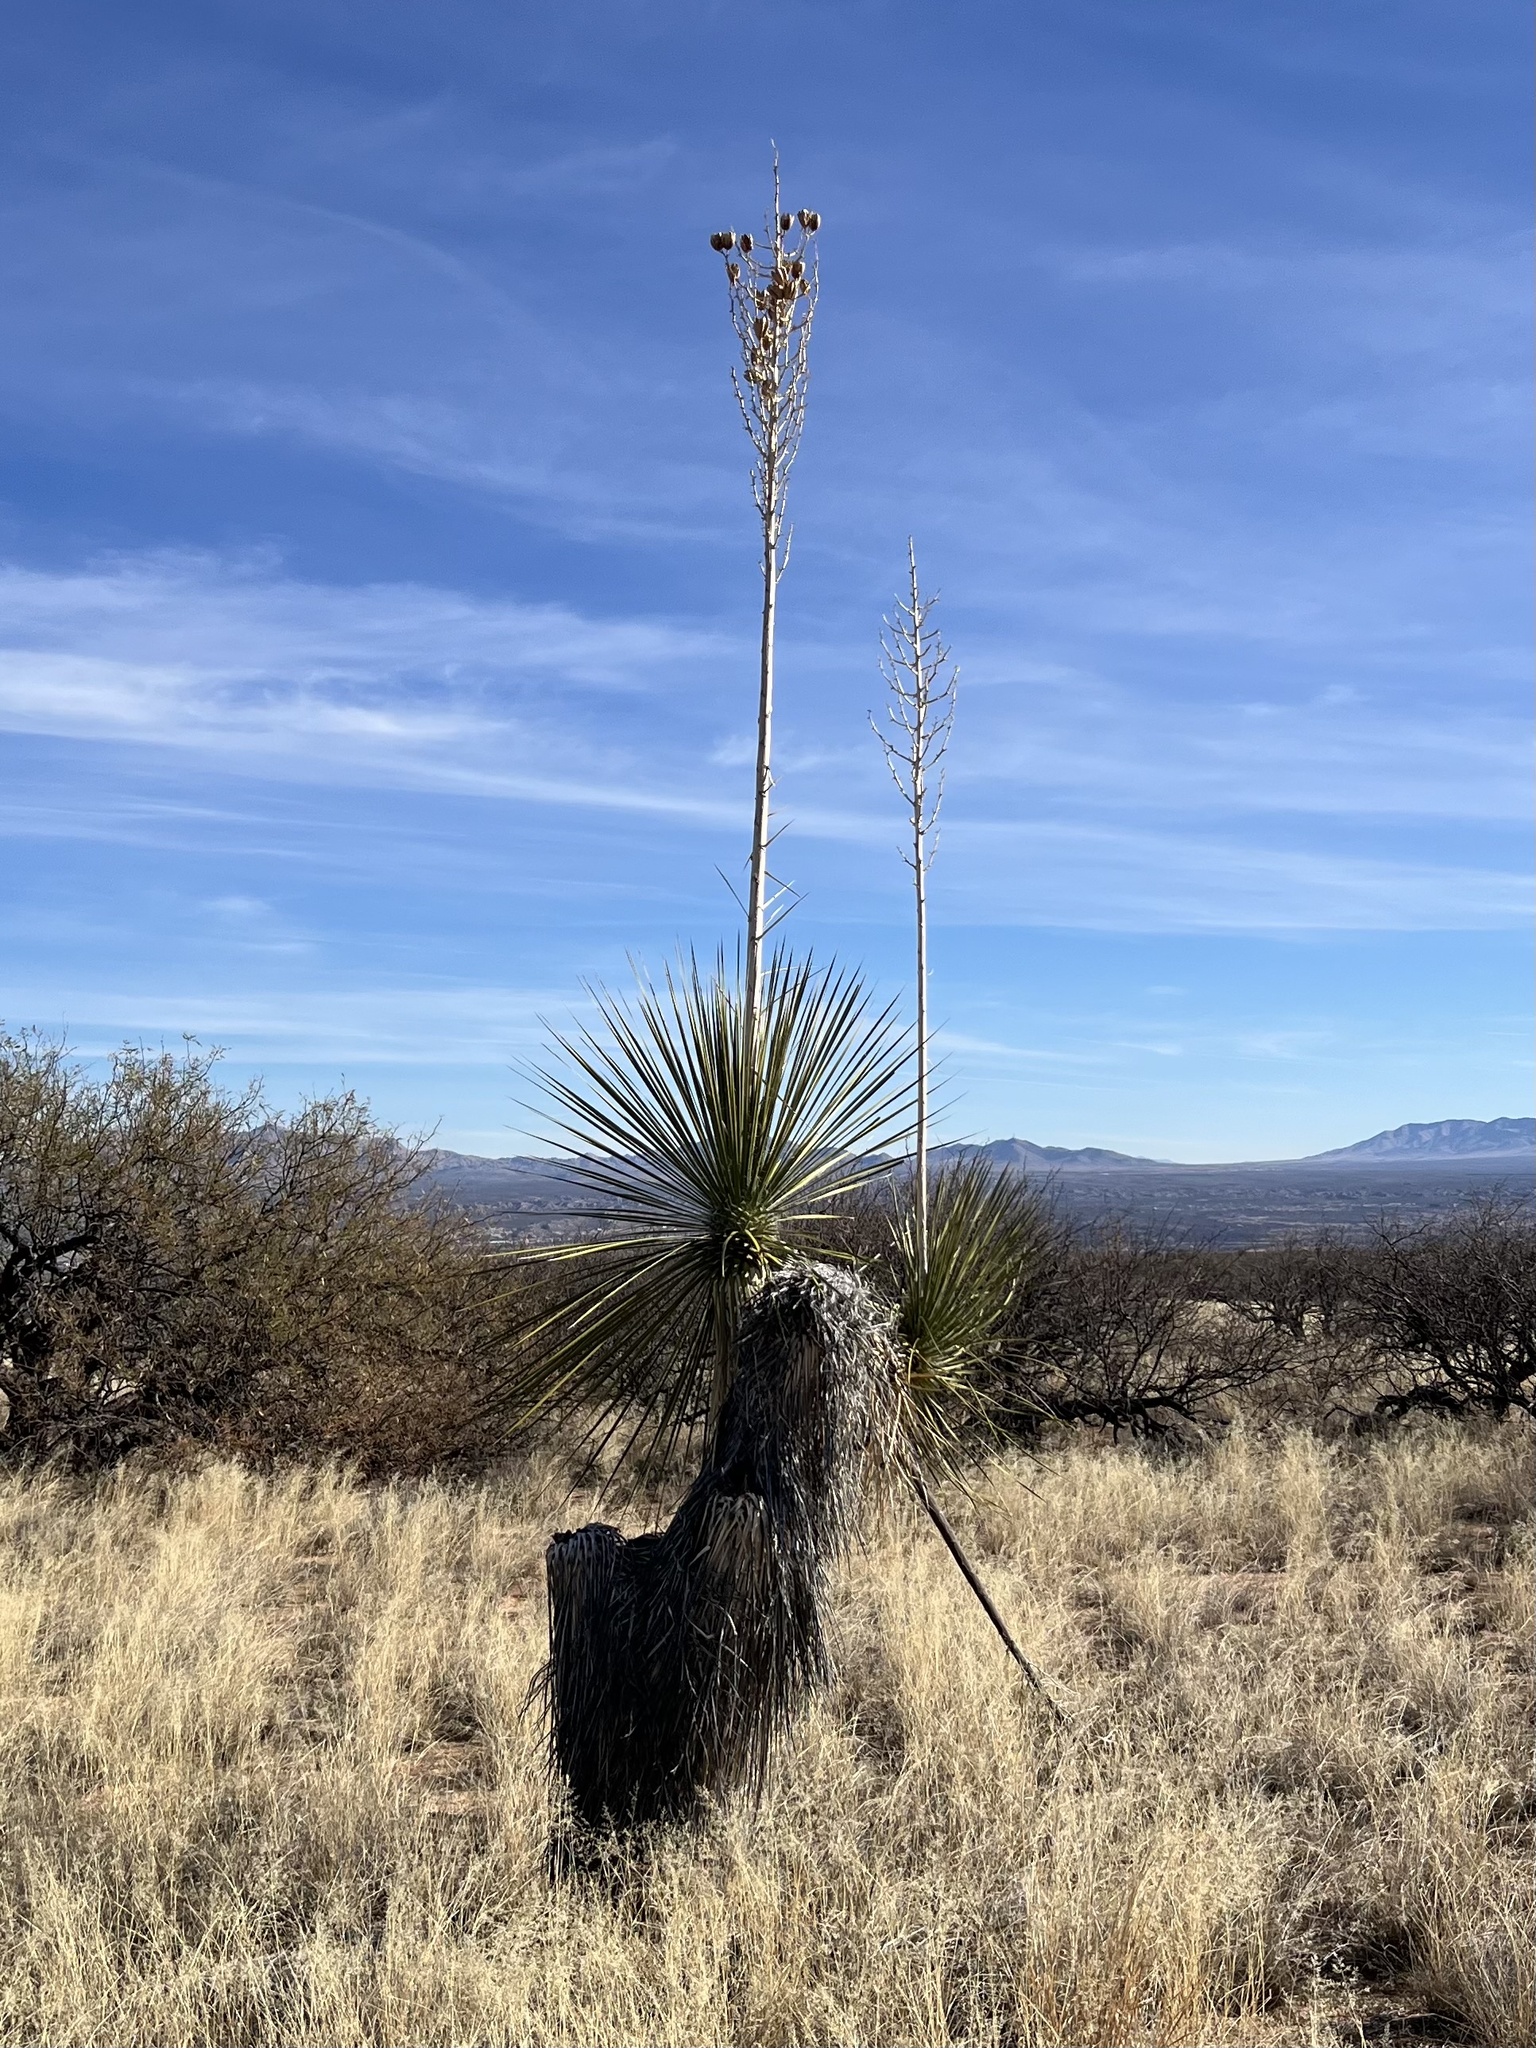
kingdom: Plantae
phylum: Tracheophyta
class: Liliopsida
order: Asparagales
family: Asparagaceae
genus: Yucca
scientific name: Yucca elata
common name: Palmella
